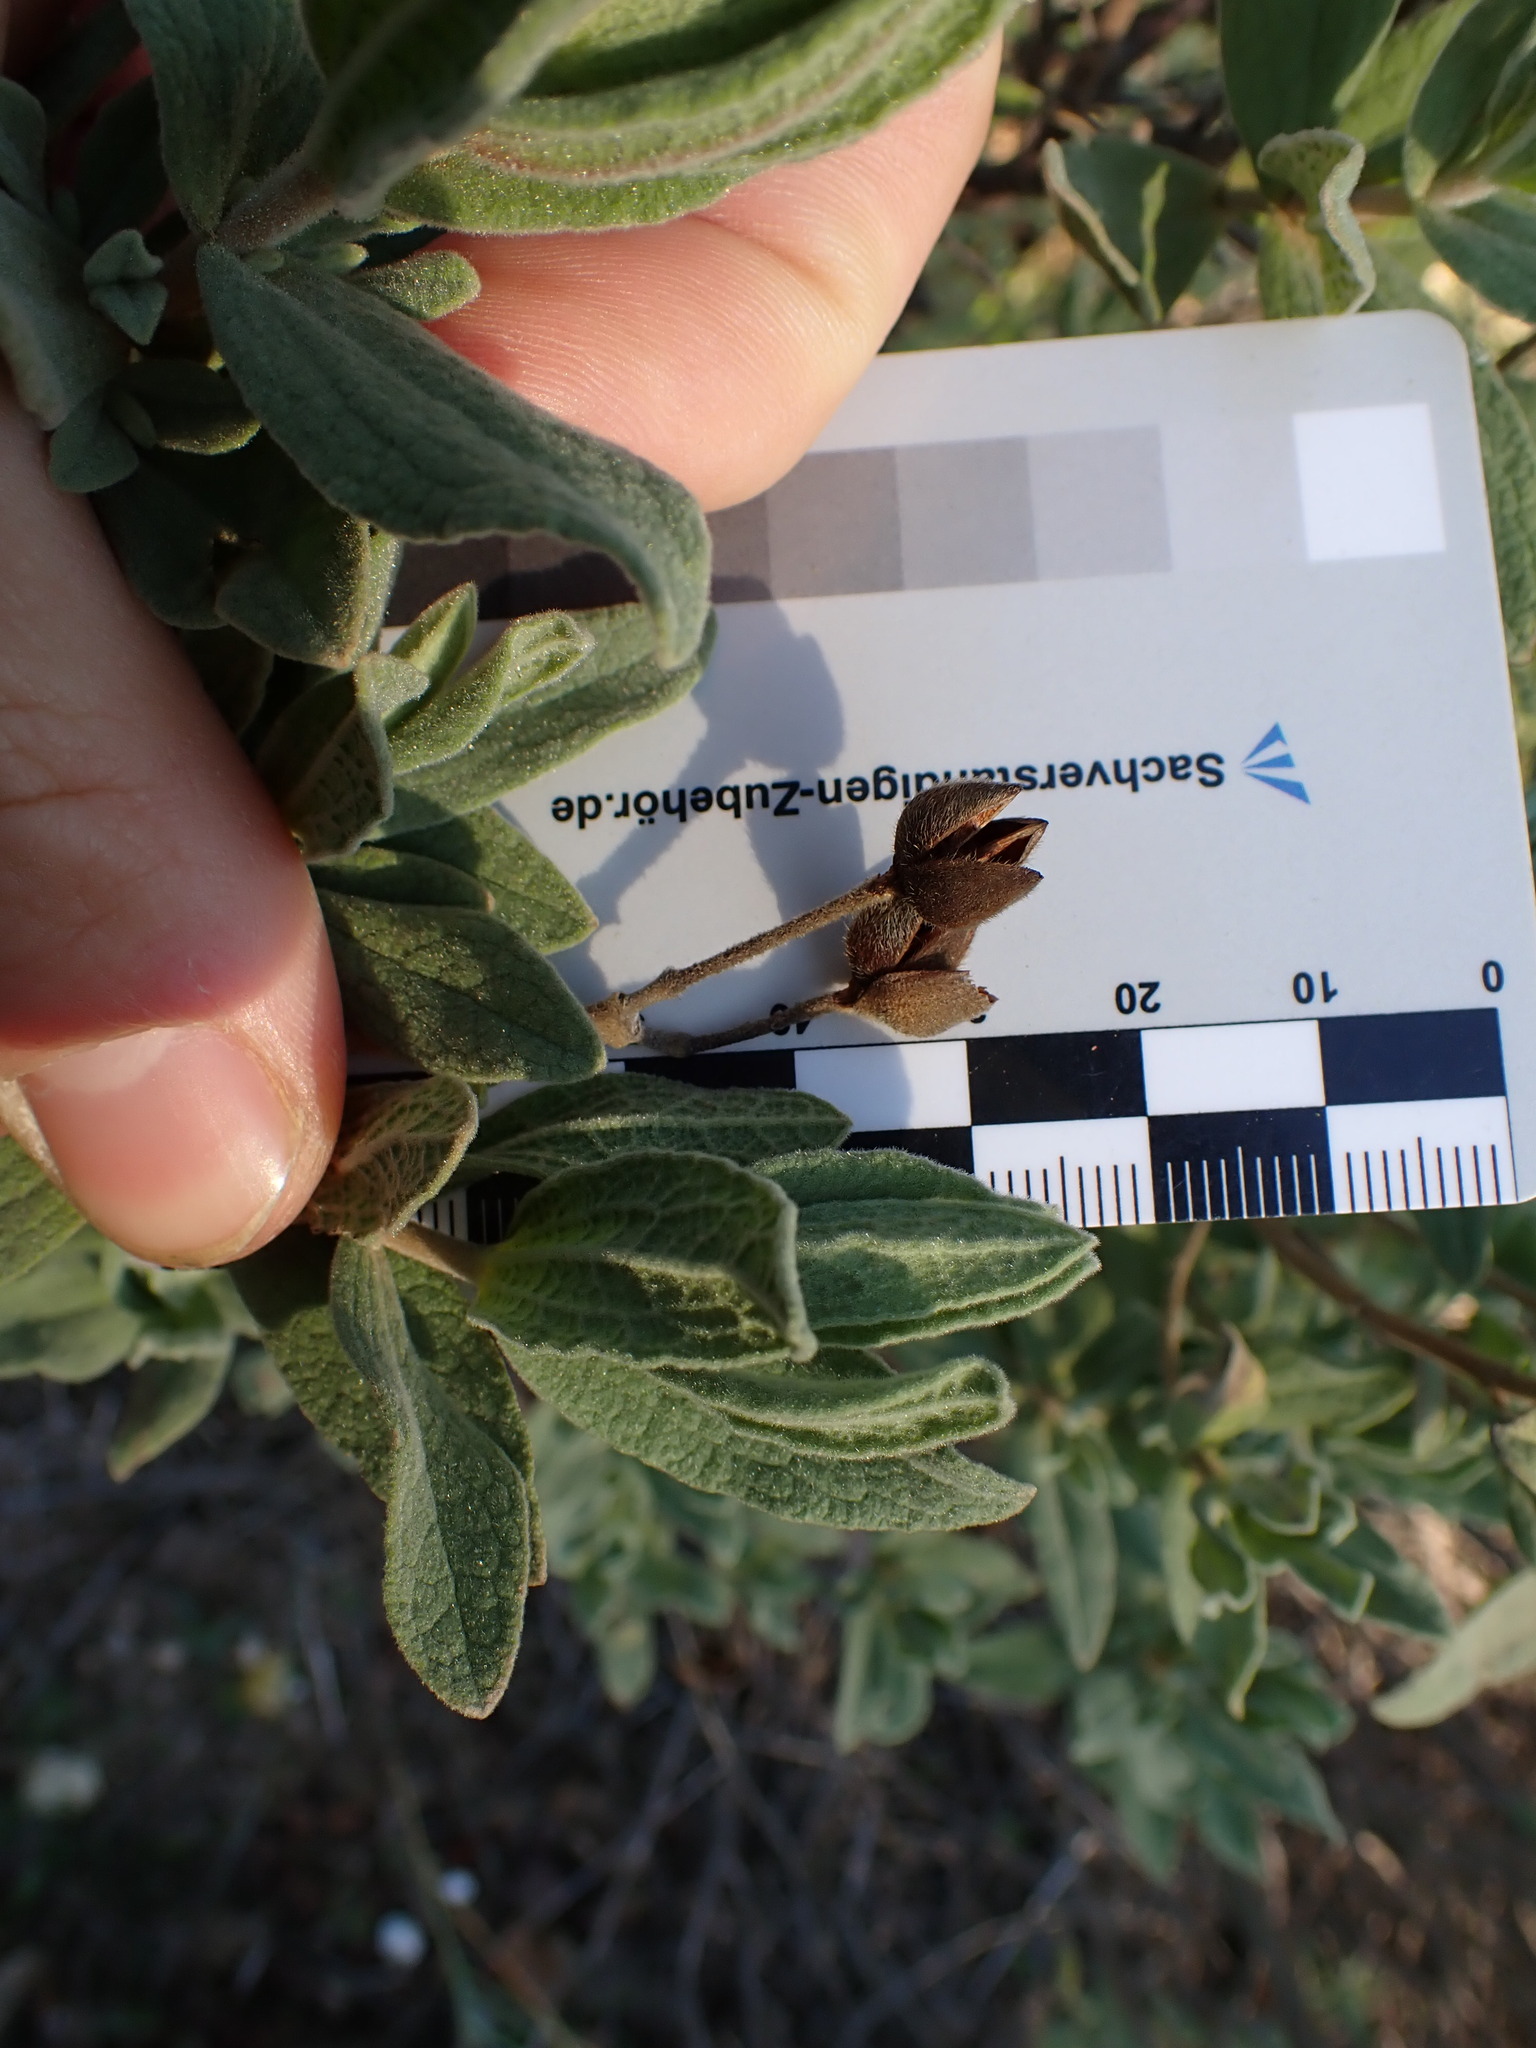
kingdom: Plantae
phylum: Tracheophyta
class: Magnoliopsida
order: Malvales
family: Cistaceae
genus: Cistus
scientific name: Cistus albidus
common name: White-leaf rock-rose
